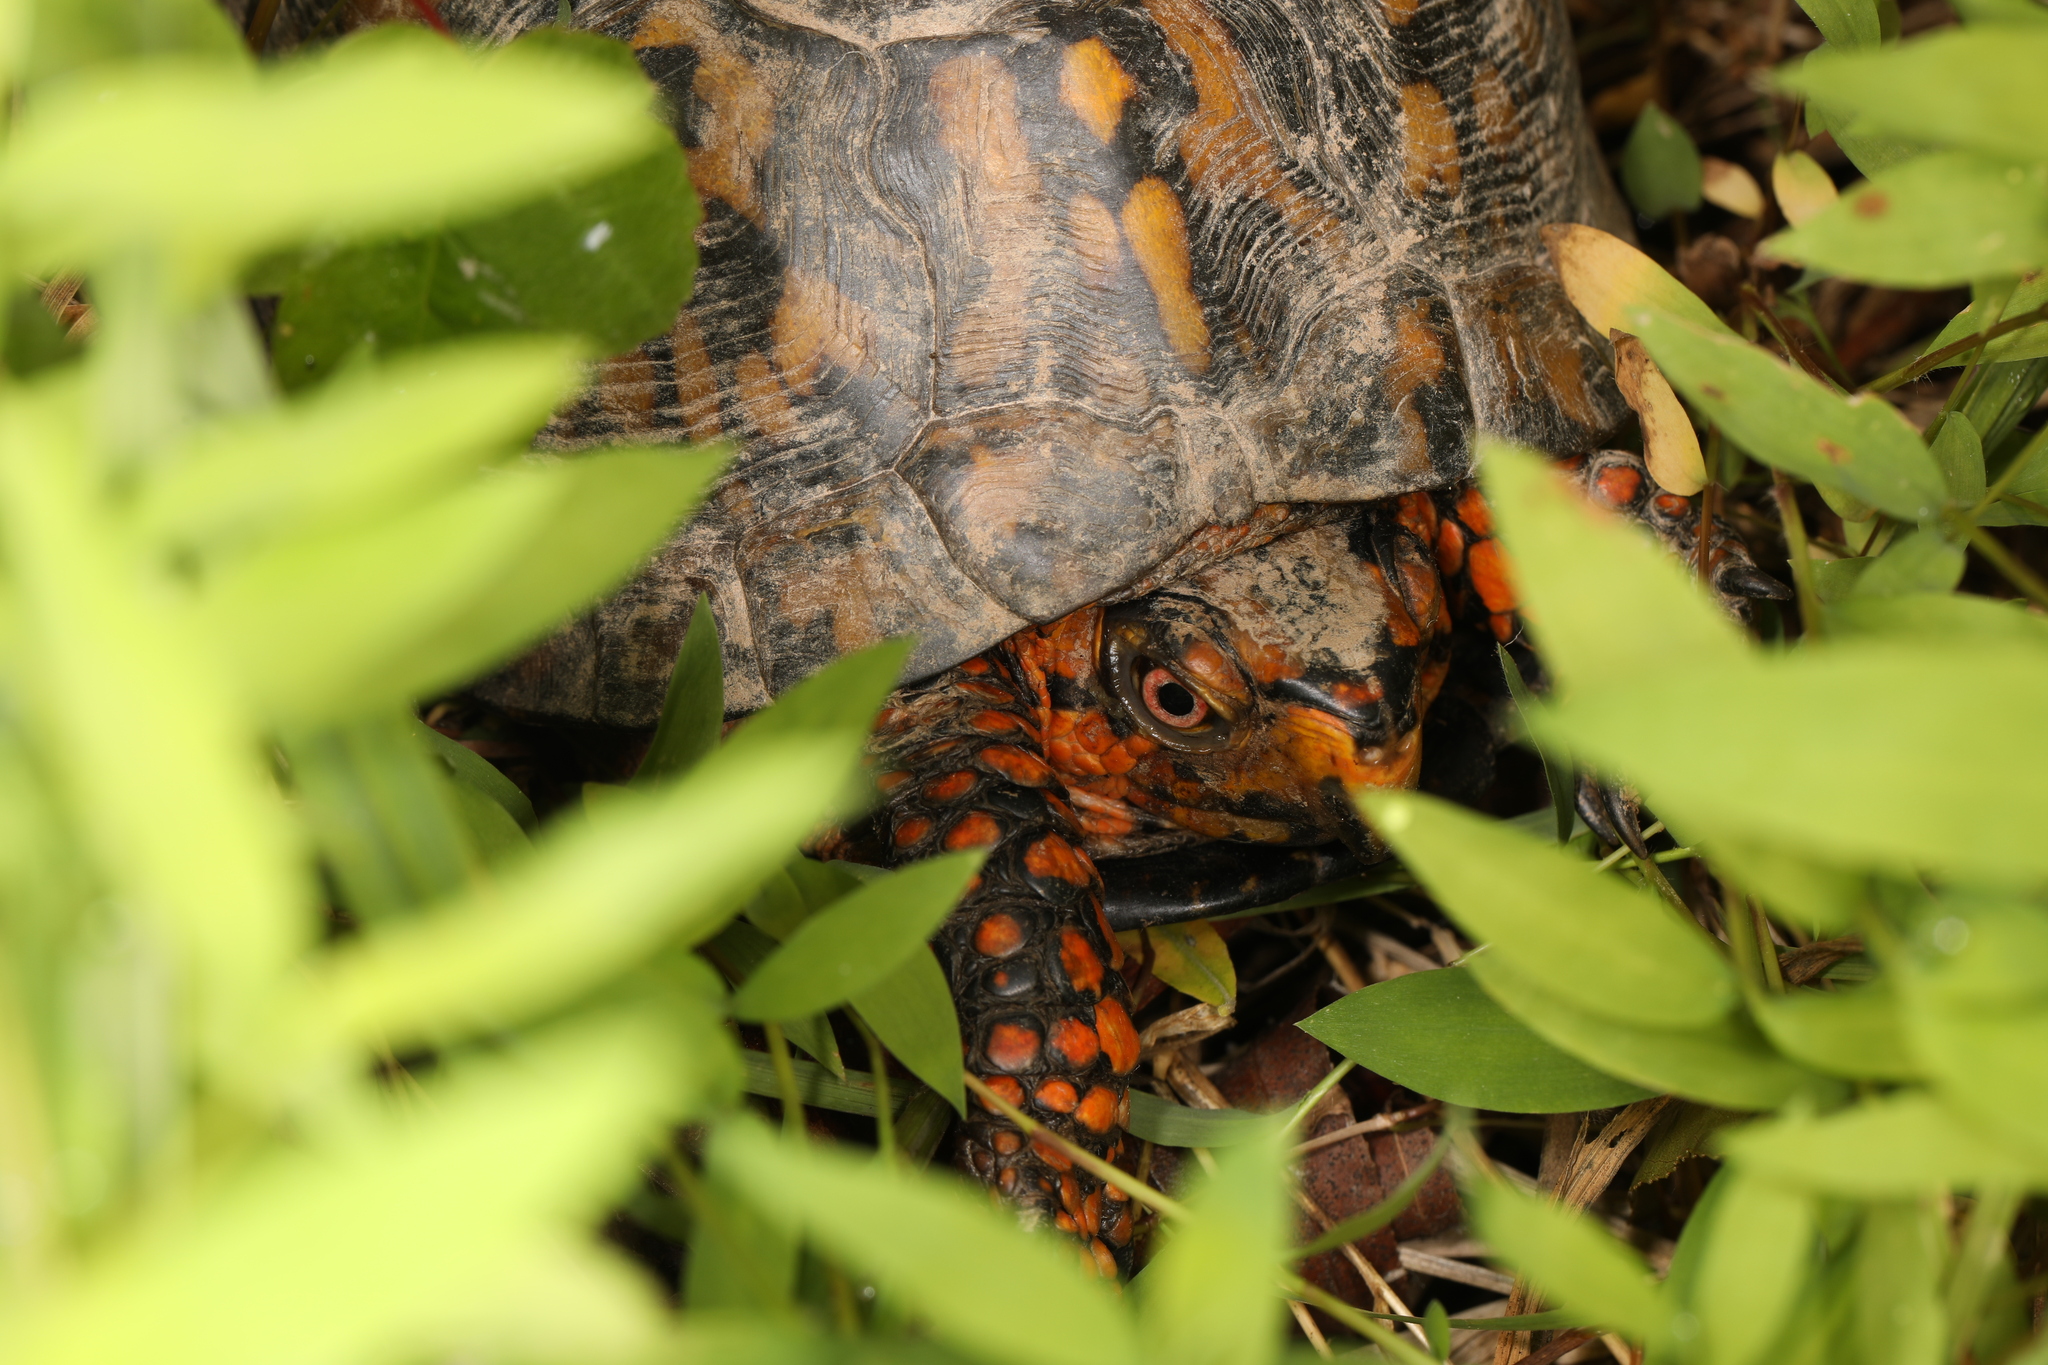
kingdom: Animalia
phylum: Chordata
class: Testudines
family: Emydidae
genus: Terrapene
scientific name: Terrapene carolina
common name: Common box turtle
